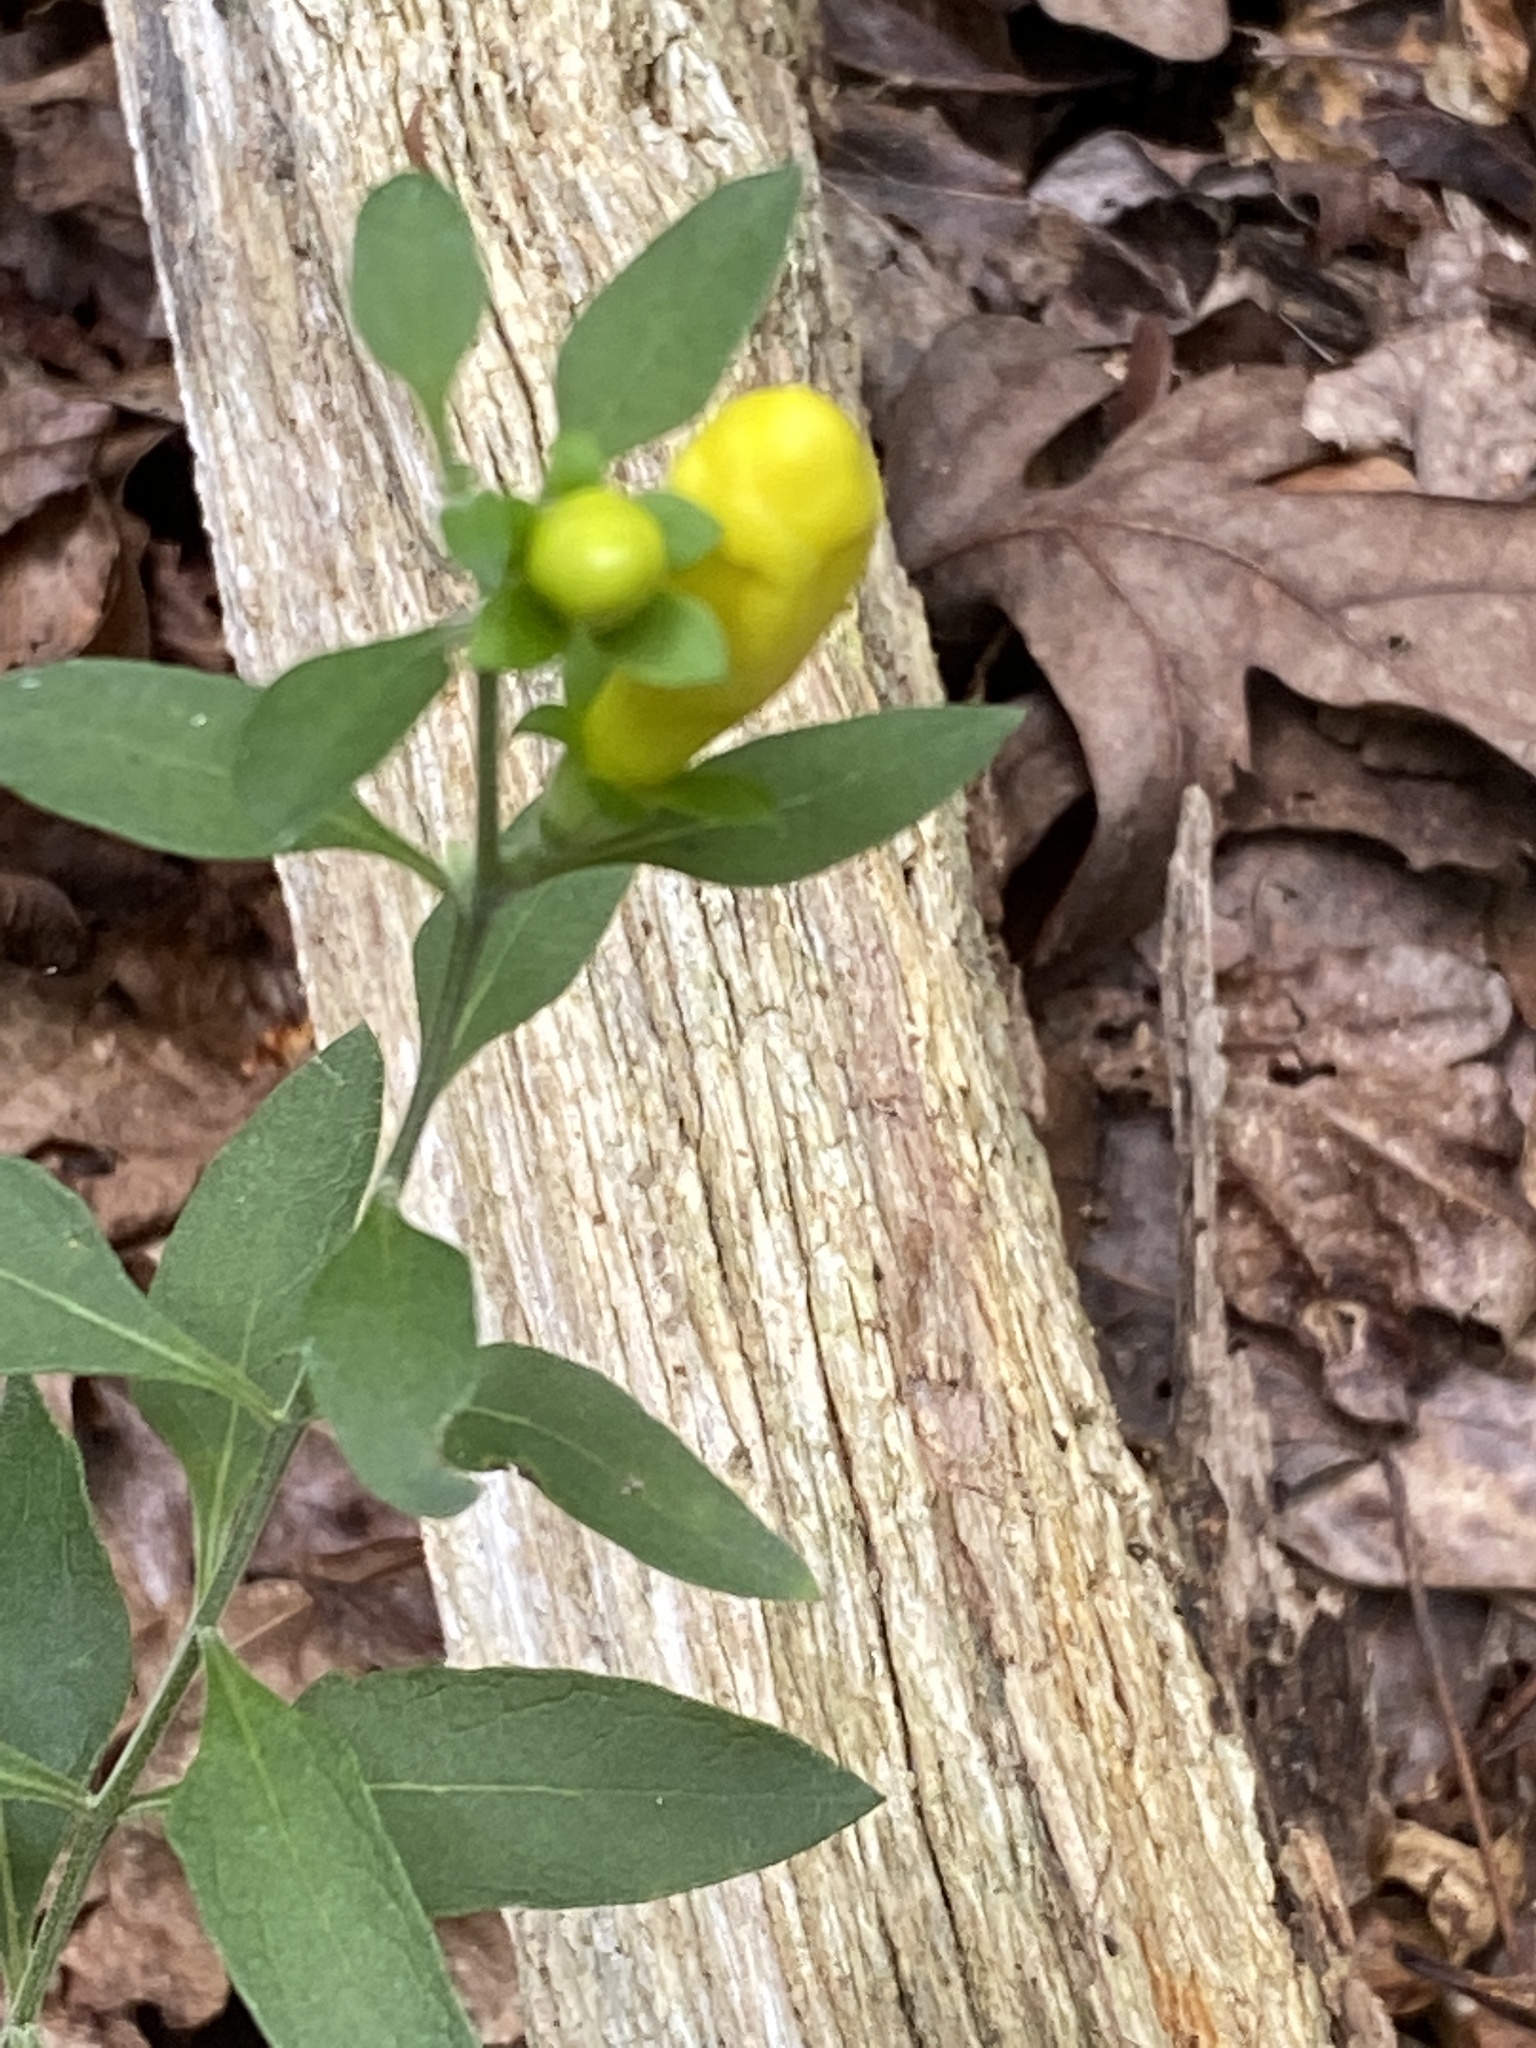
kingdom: Plantae
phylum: Tracheophyta
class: Magnoliopsida
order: Lamiales
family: Orobanchaceae
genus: Aureolaria
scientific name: Aureolaria virginica
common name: Downy false foxglove
